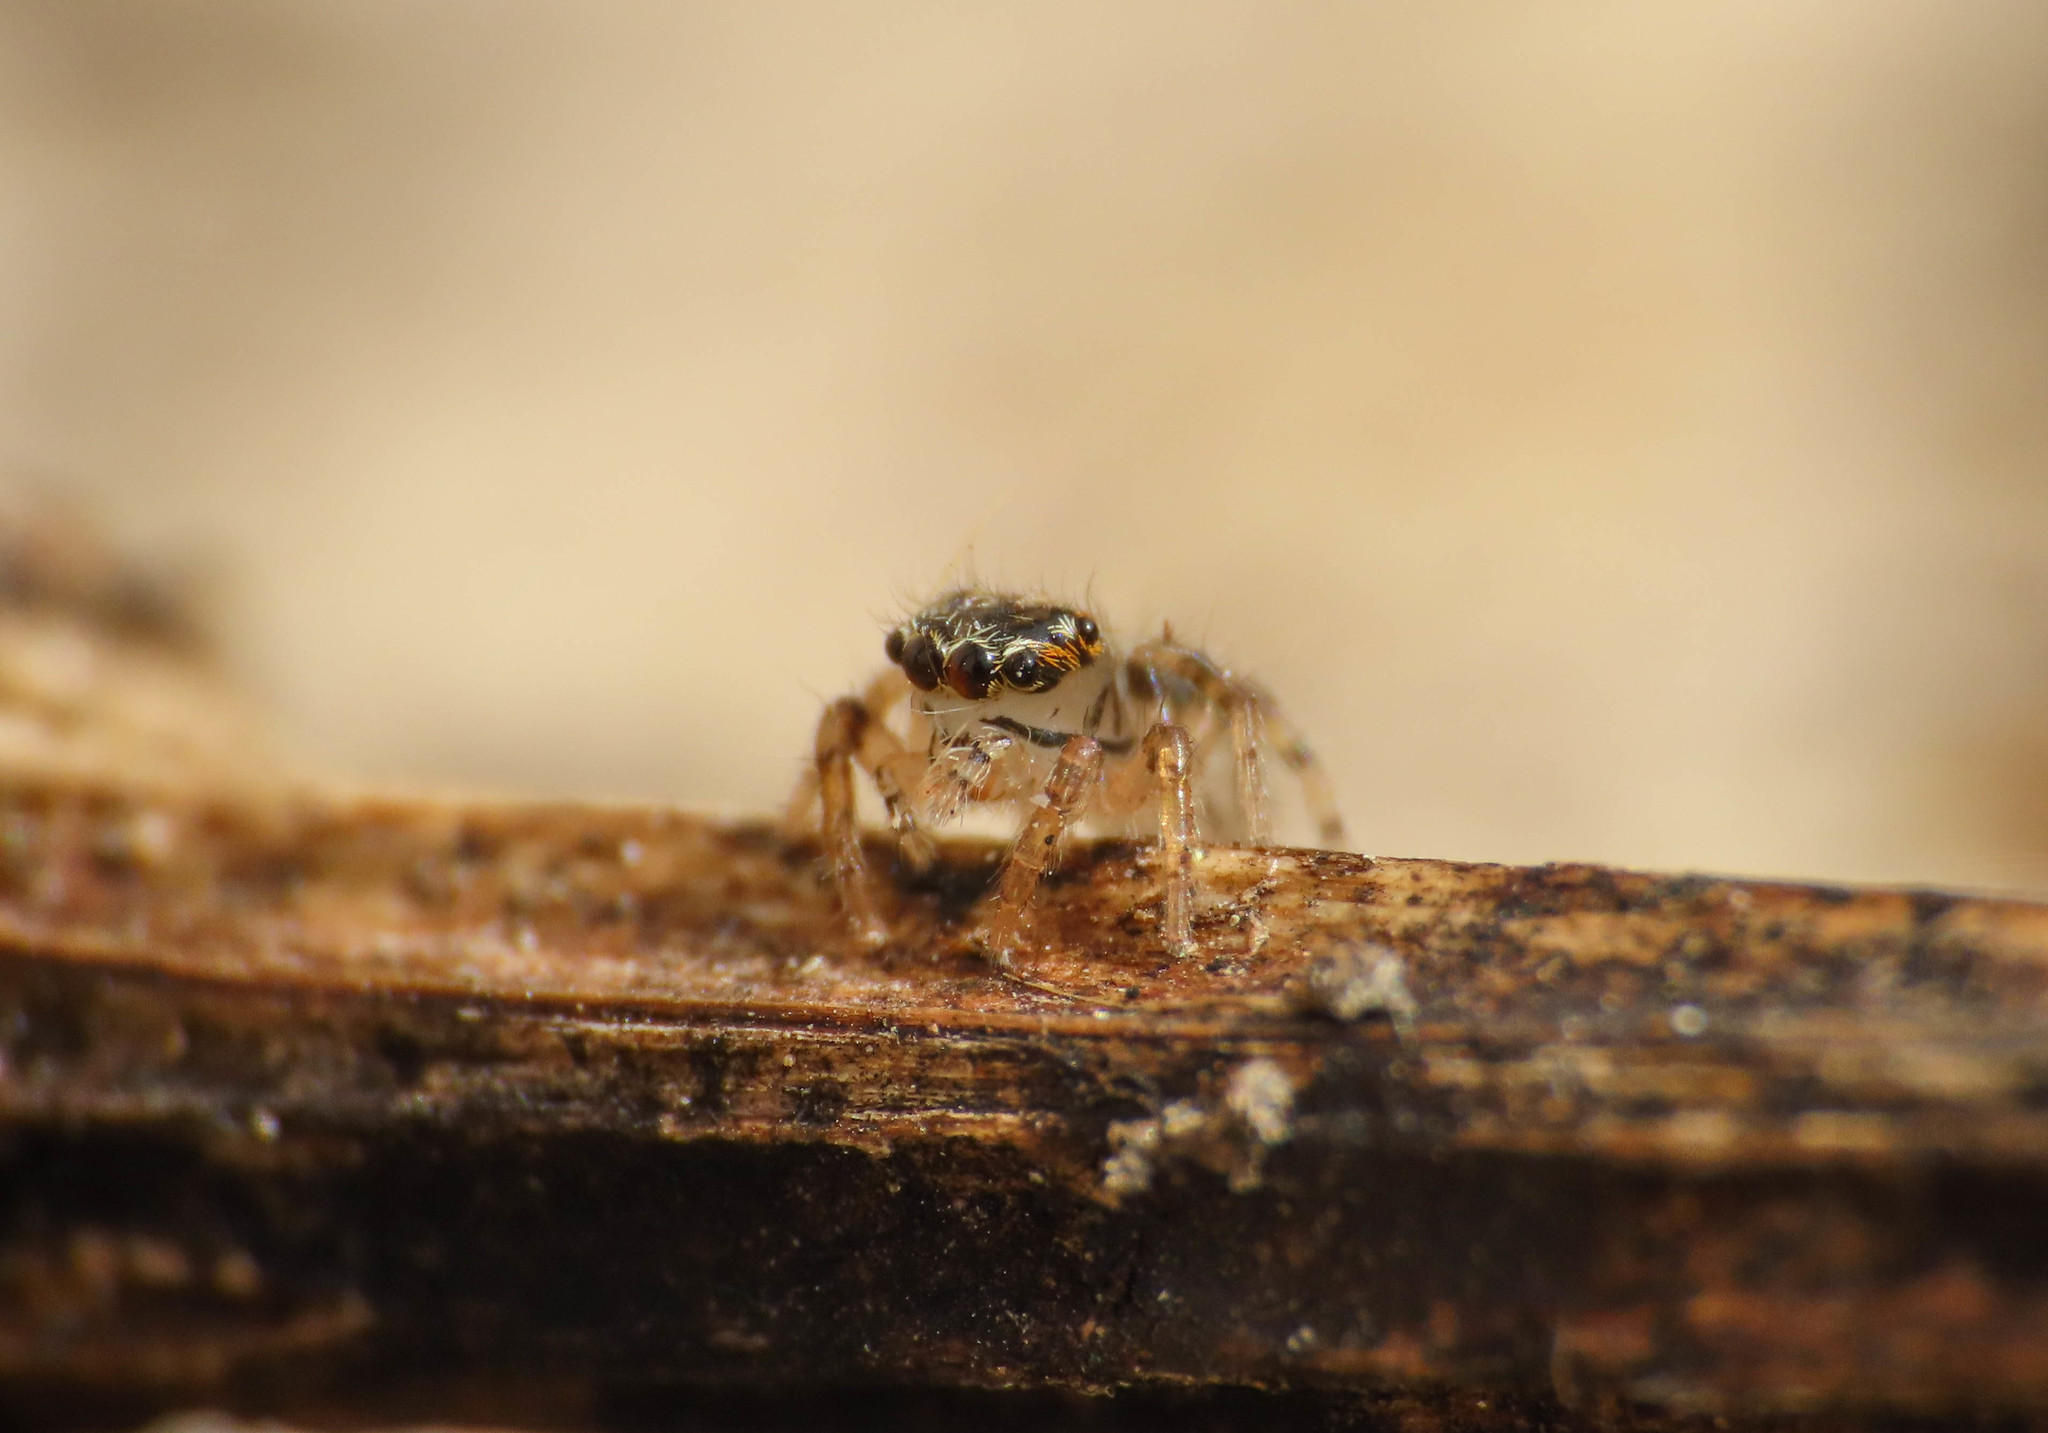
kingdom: Animalia
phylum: Arthropoda
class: Arachnida
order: Araneae
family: Salticidae
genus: Evarcha
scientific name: Evarcha jucunda
